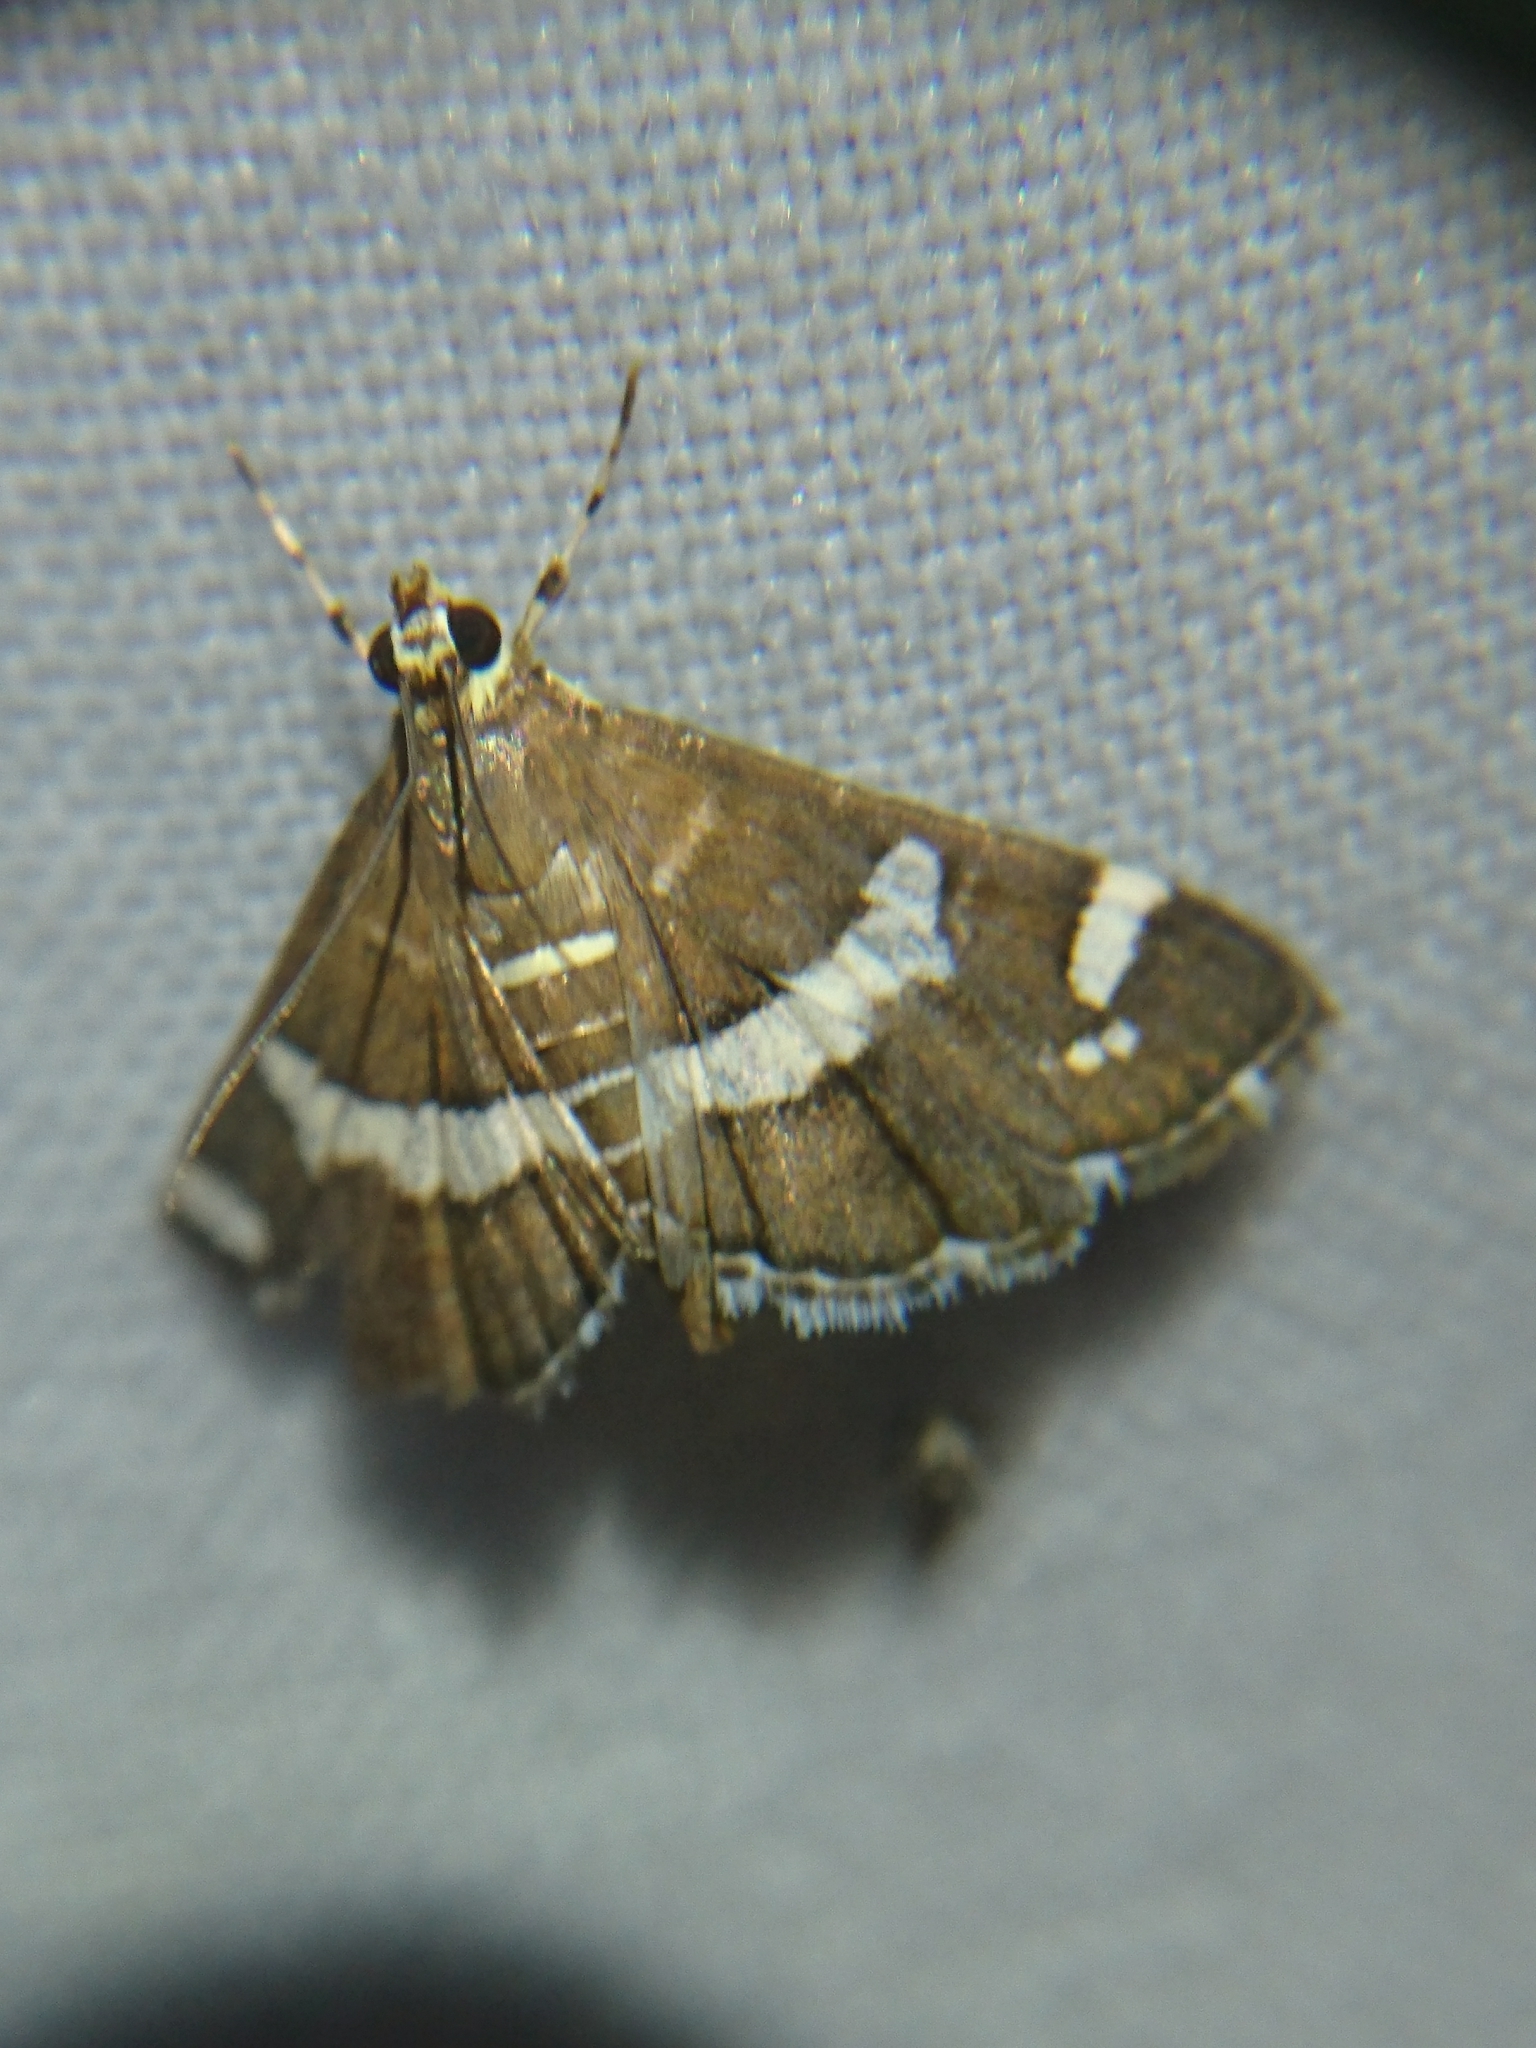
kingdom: Animalia
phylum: Arthropoda
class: Insecta
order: Lepidoptera
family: Crambidae
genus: Spoladea
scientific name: Spoladea recurvalis
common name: Beet webworm moth
